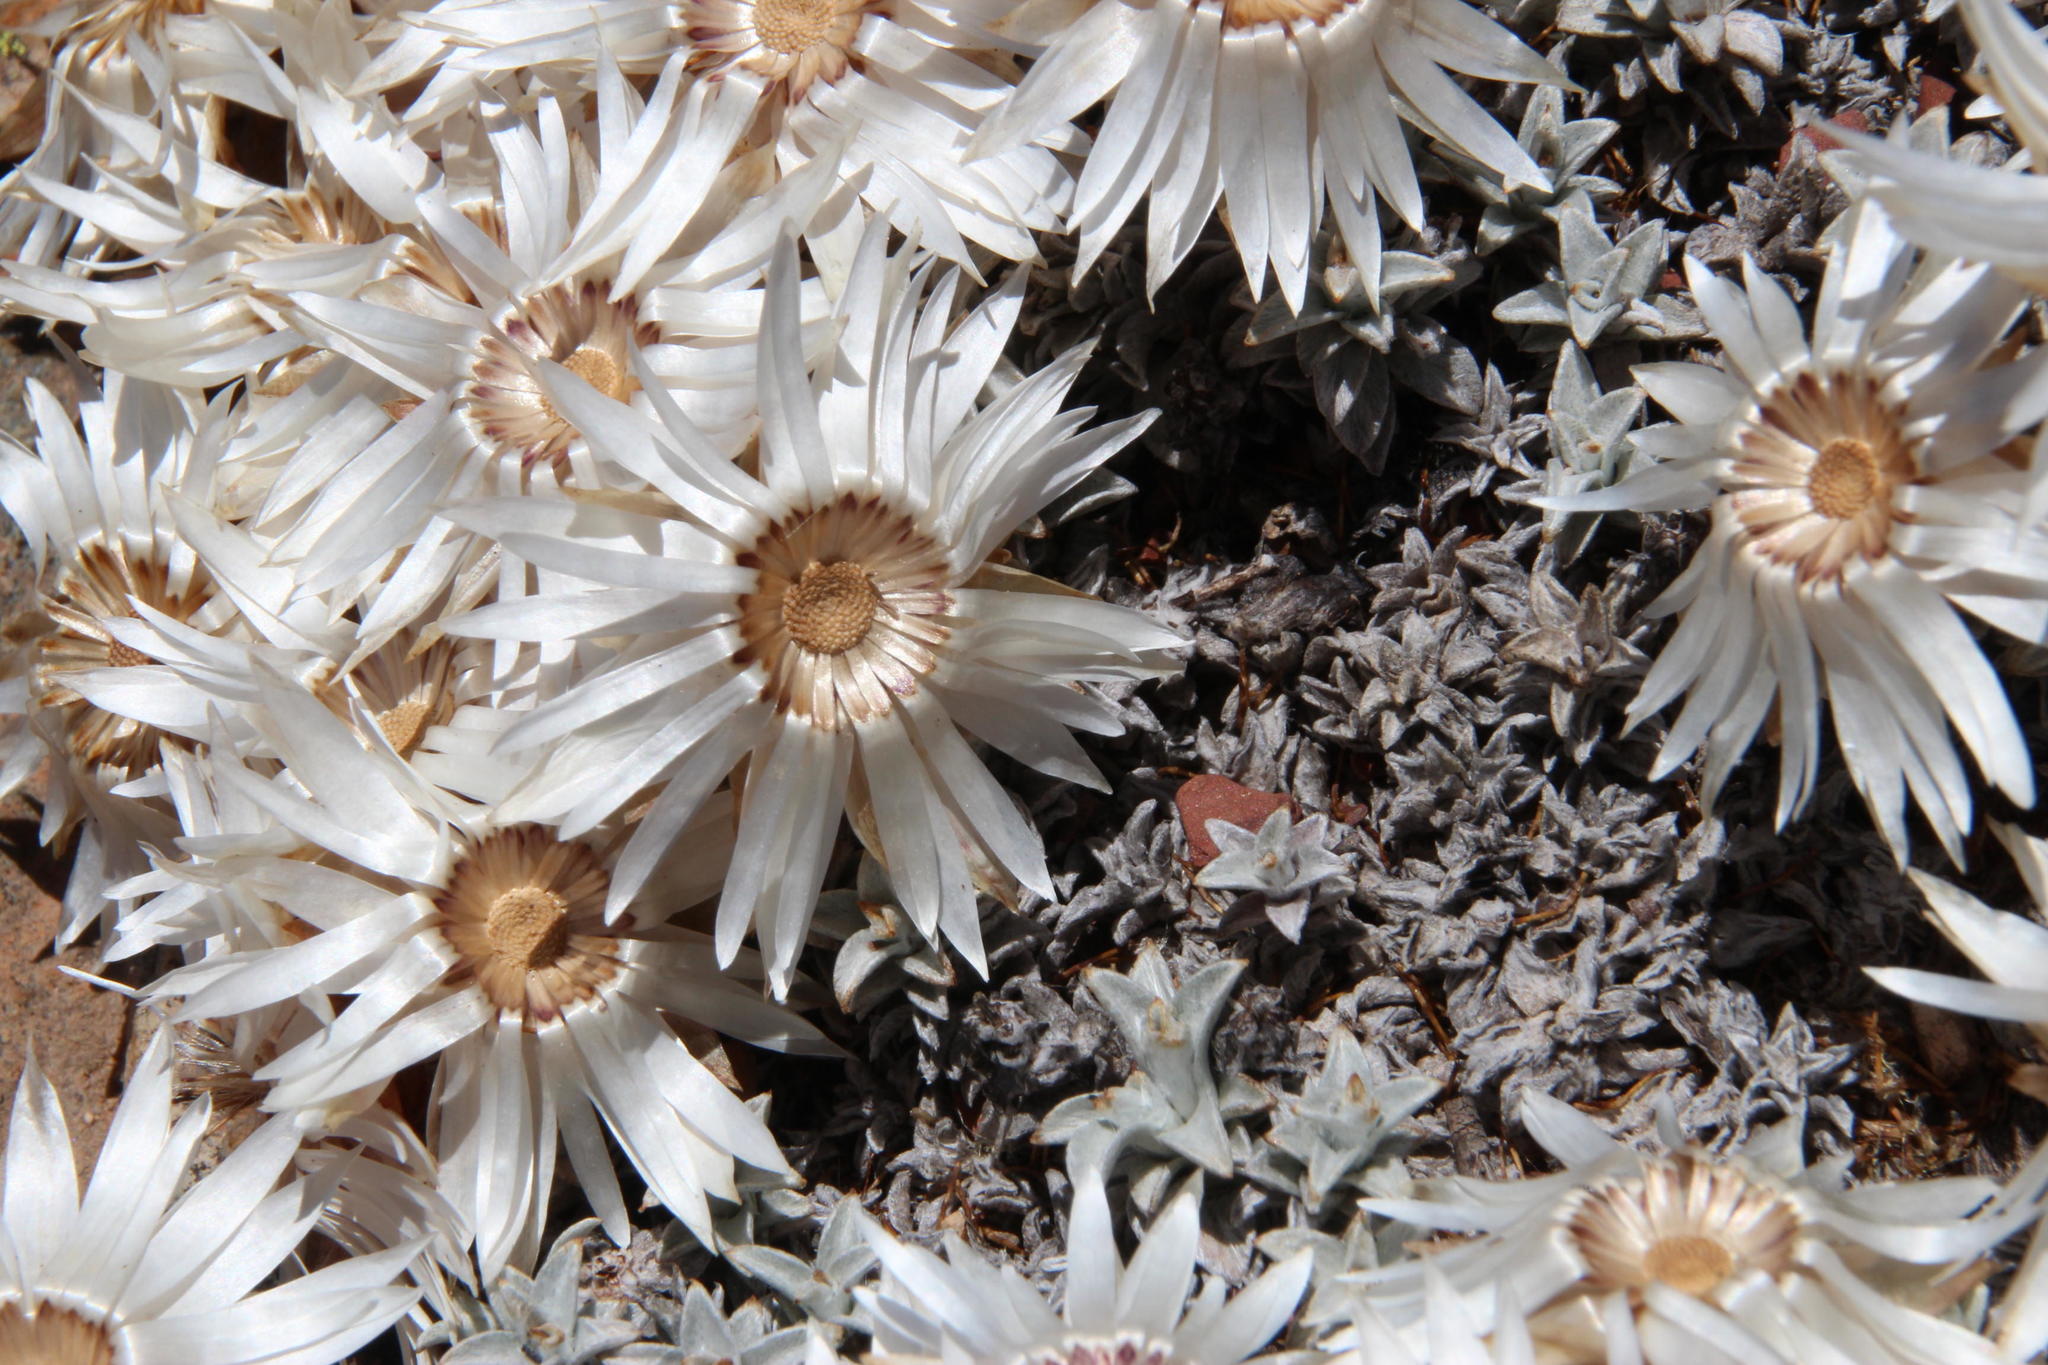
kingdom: Plantae
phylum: Tracheophyta
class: Magnoliopsida
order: Asterales
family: Asteraceae
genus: Helichrysum
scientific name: Helichrysum stoloniferum
